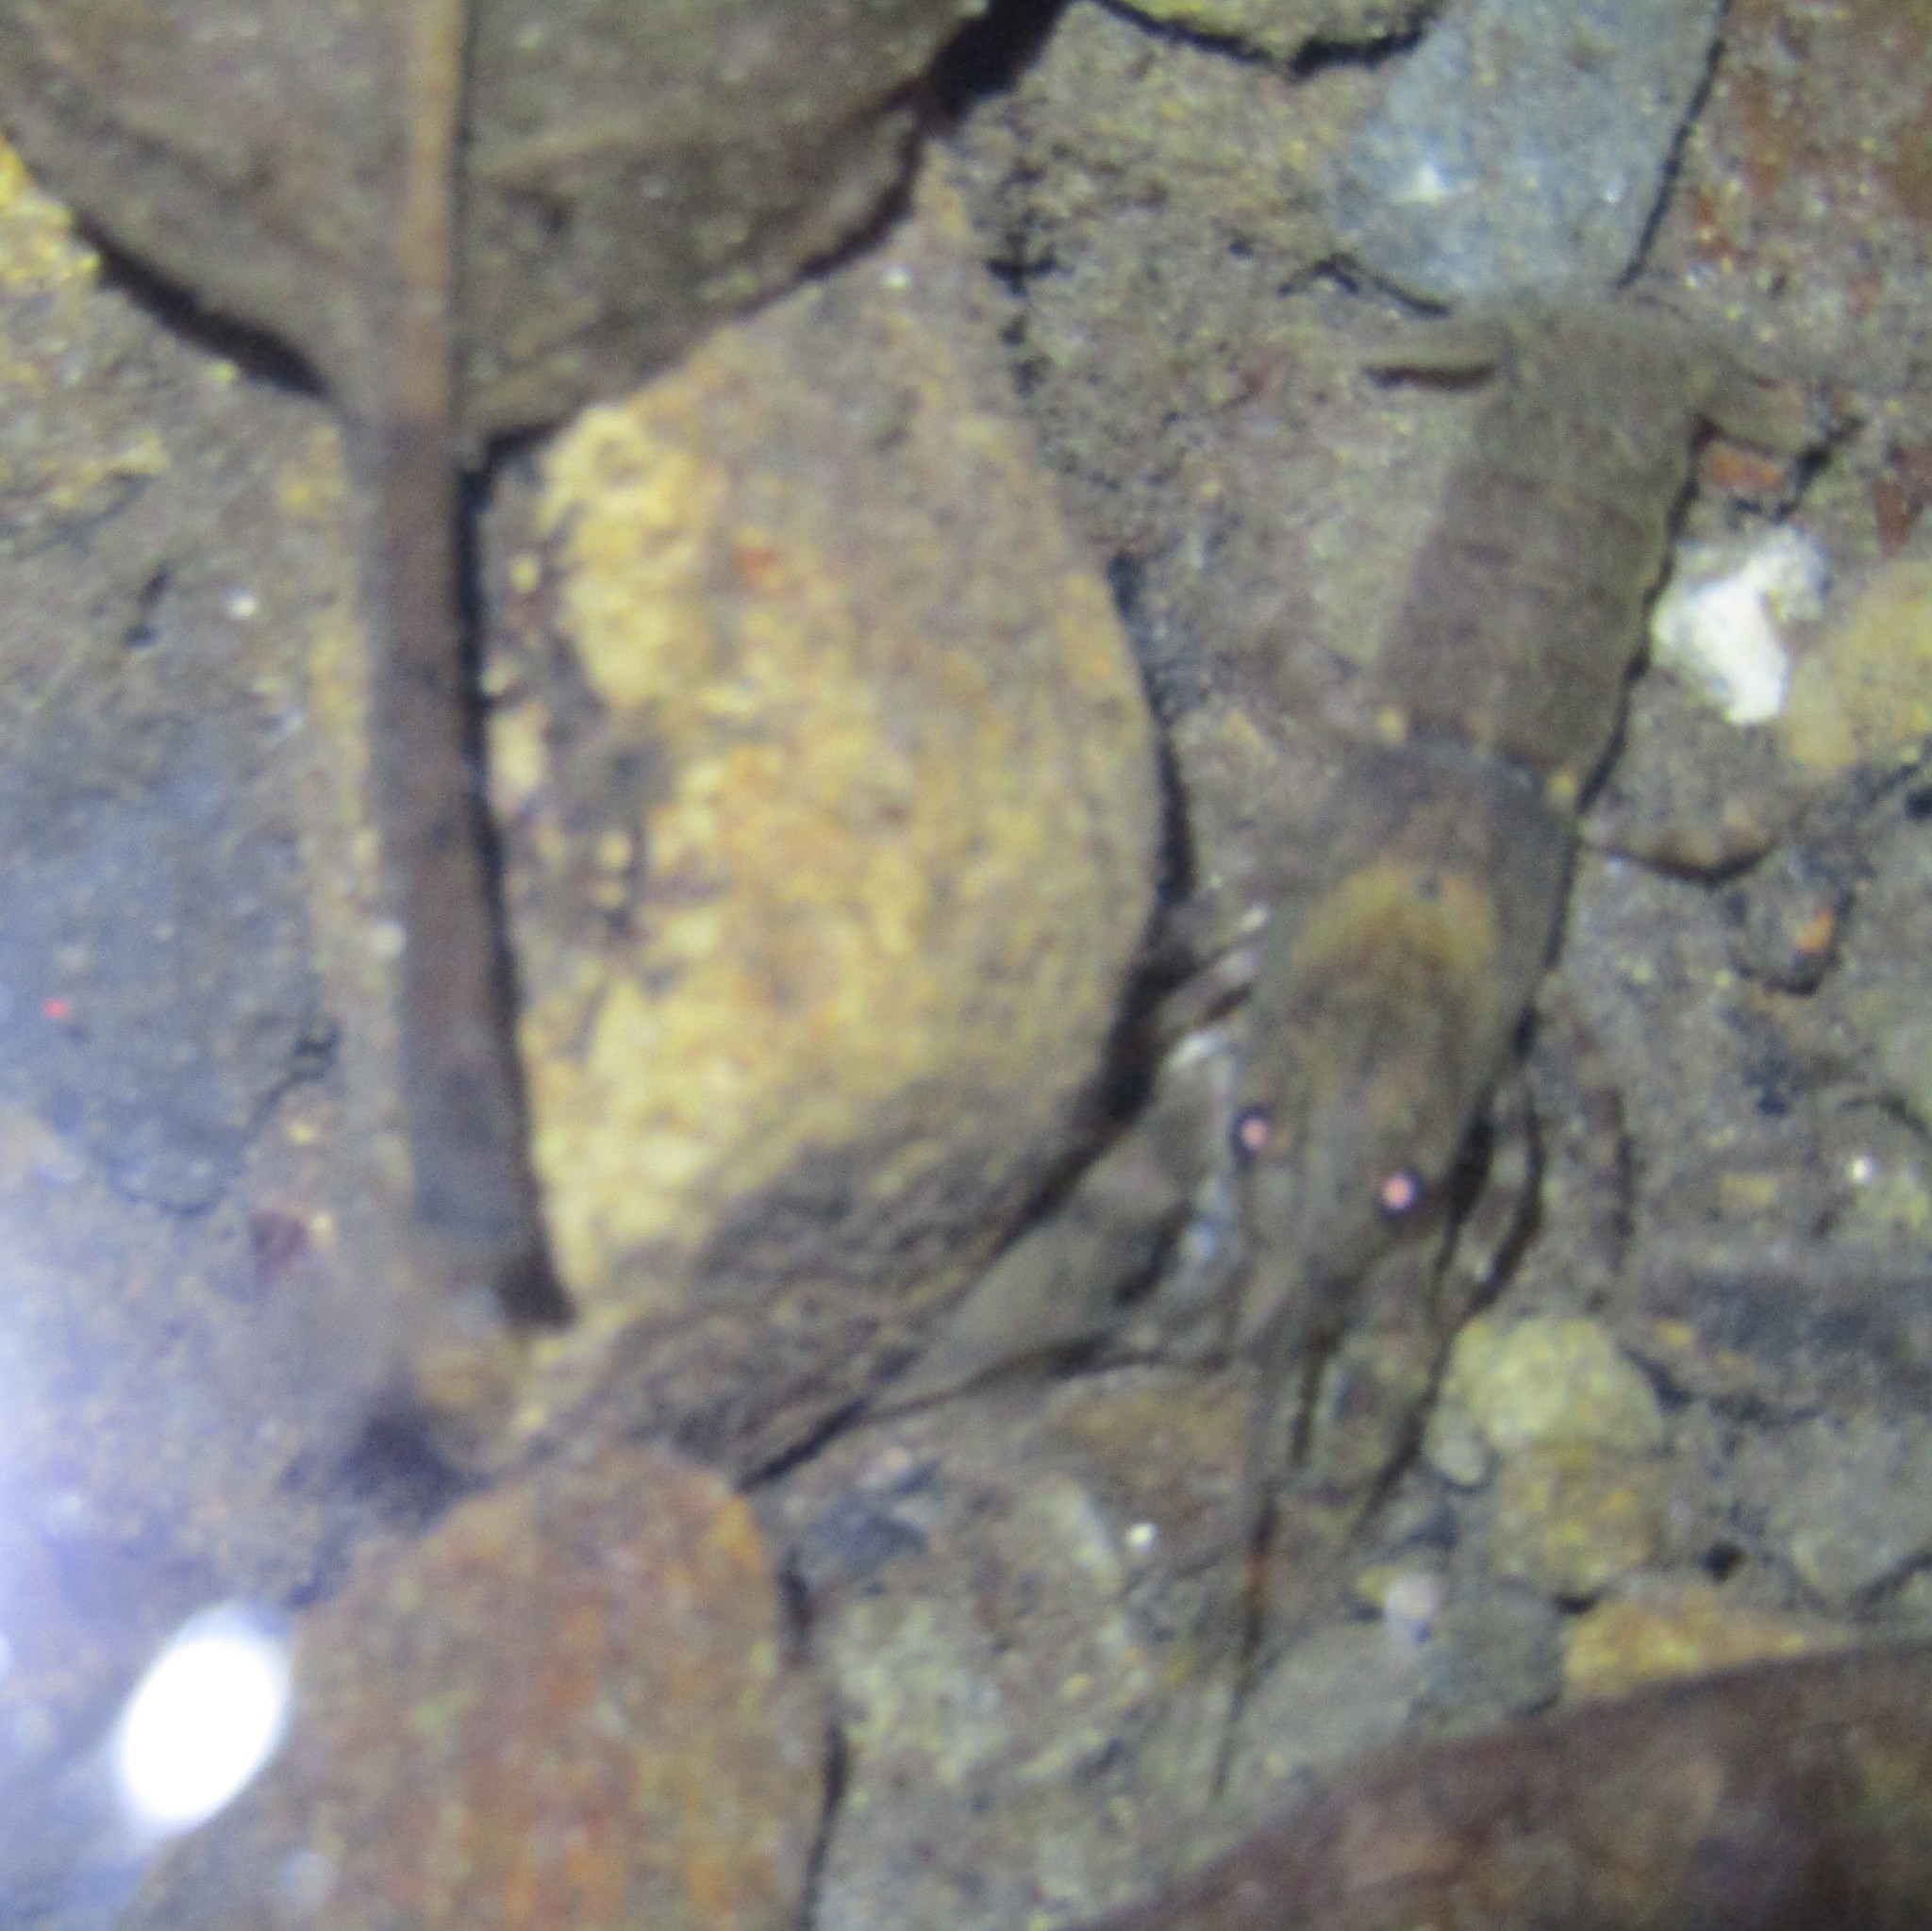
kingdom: Animalia
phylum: Arthropoda
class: Malacostraca
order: Decapoda
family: Parastacidae
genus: Paranephrops
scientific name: Paranephrops planifrons
